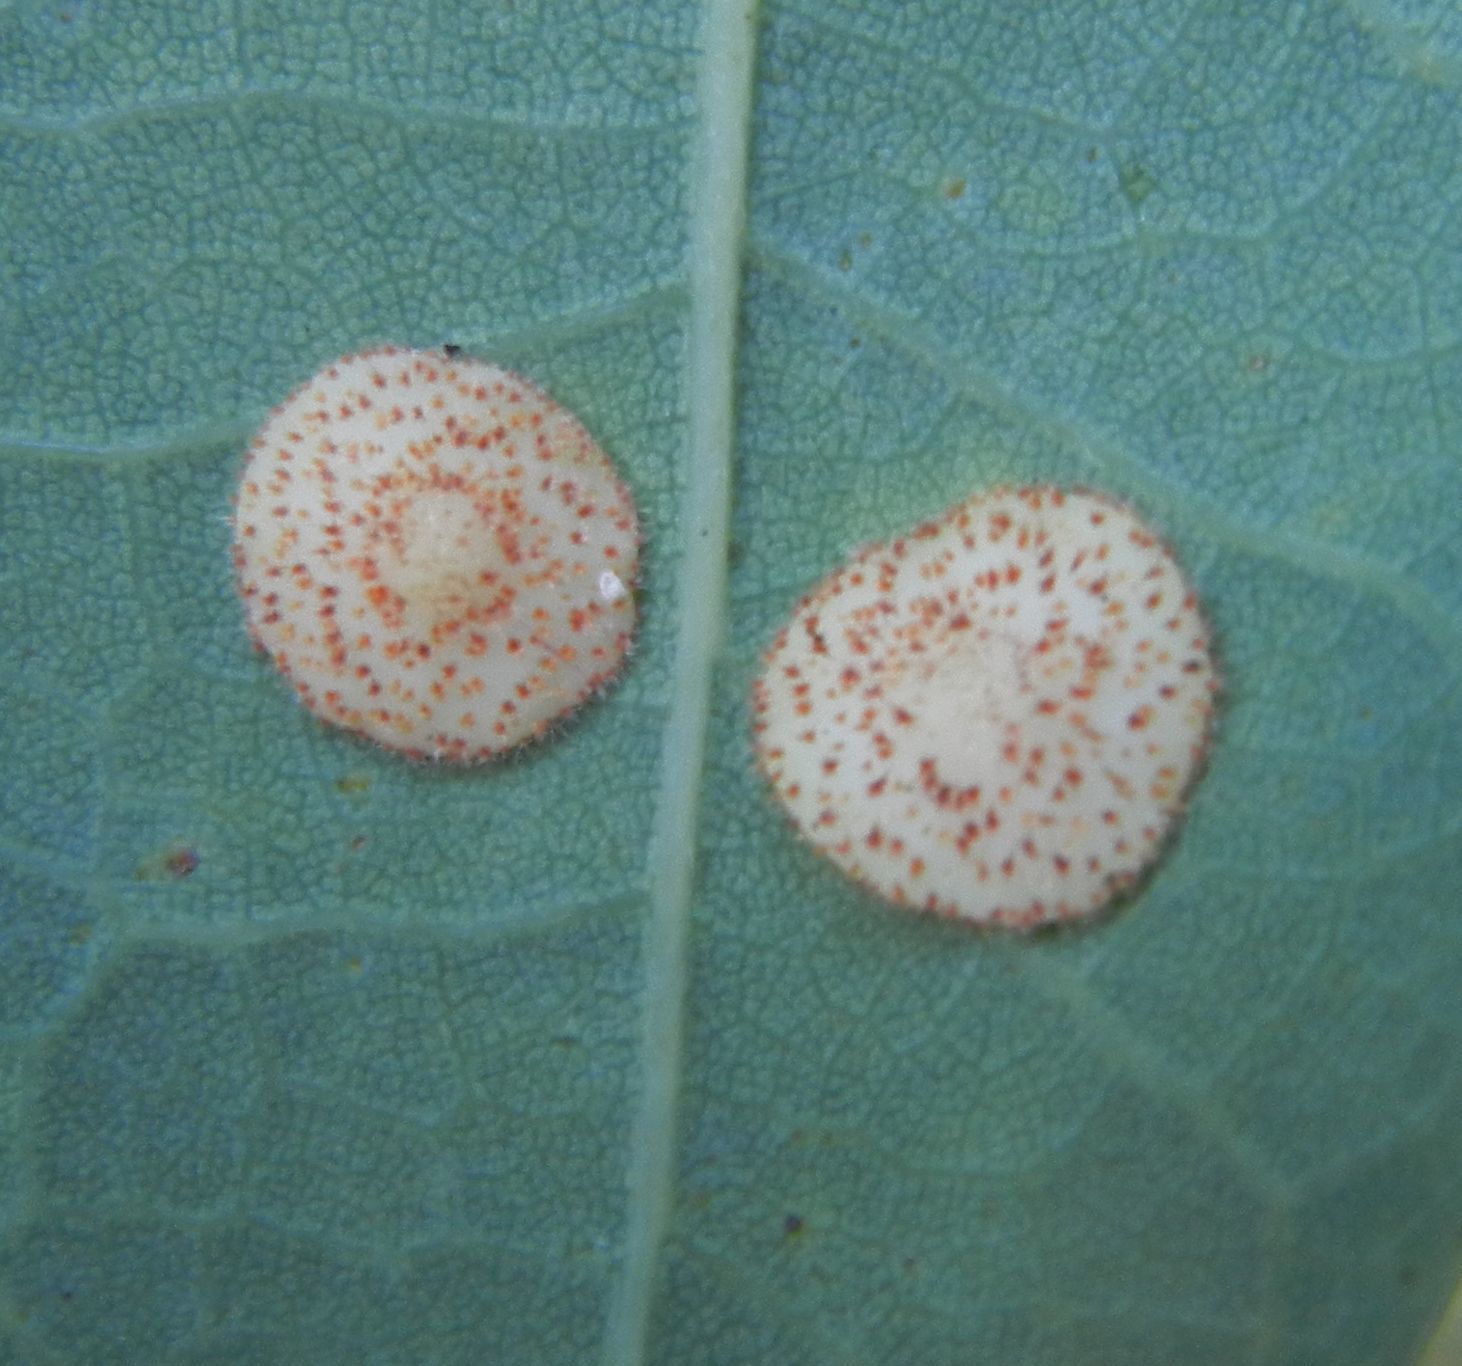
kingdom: Animalia
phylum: Arthropoda
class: Insecta
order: Hymenoptera
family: Cynipidae
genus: Neuroterus
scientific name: Neuroterus quercusbaccarum
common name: Common spangle gall
